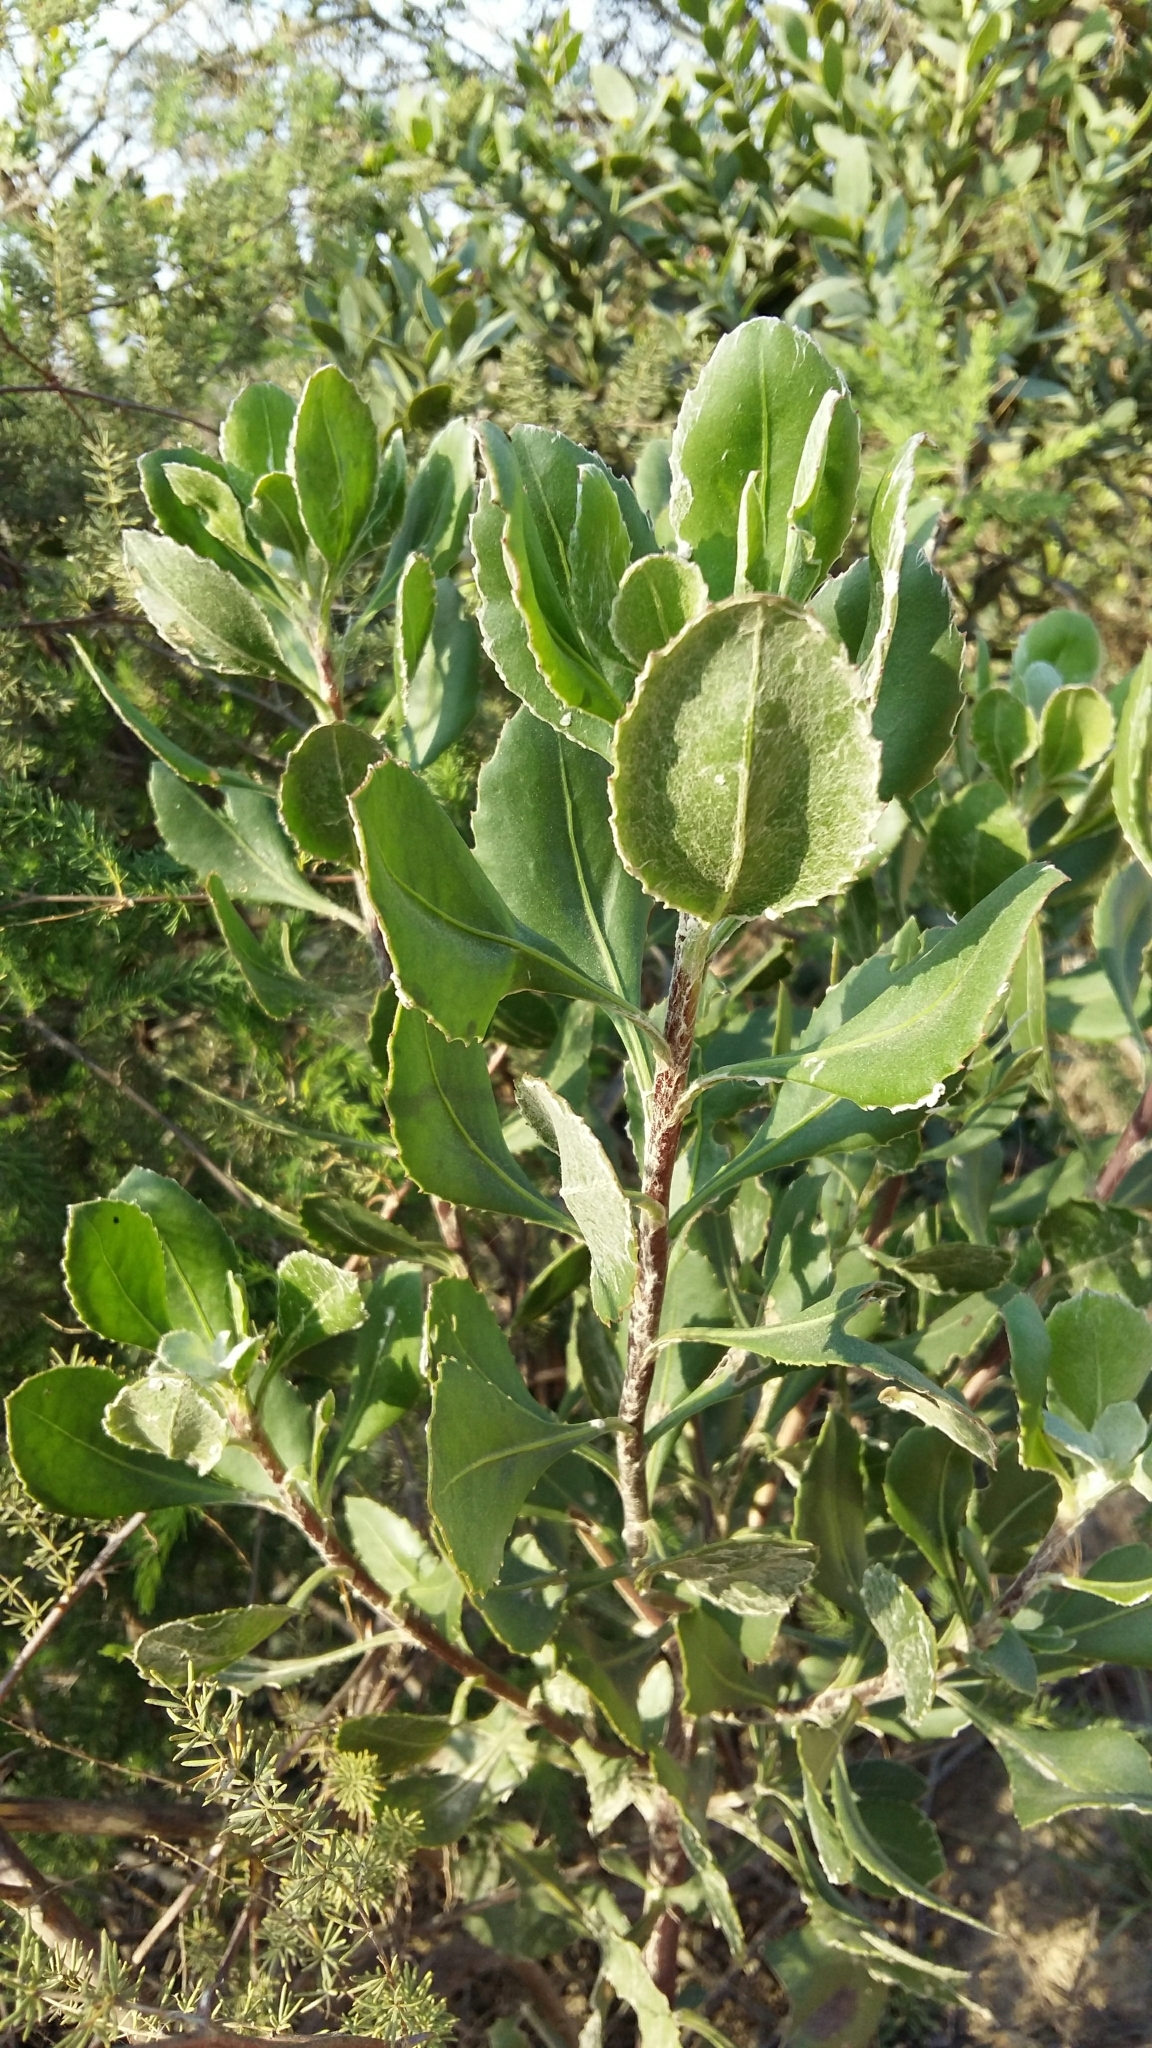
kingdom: Plantae
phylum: Tracheophyta
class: Magnoliopsida
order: Asterales
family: Asteraceae
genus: Osteospermum
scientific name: Osteospermum moniliferum
